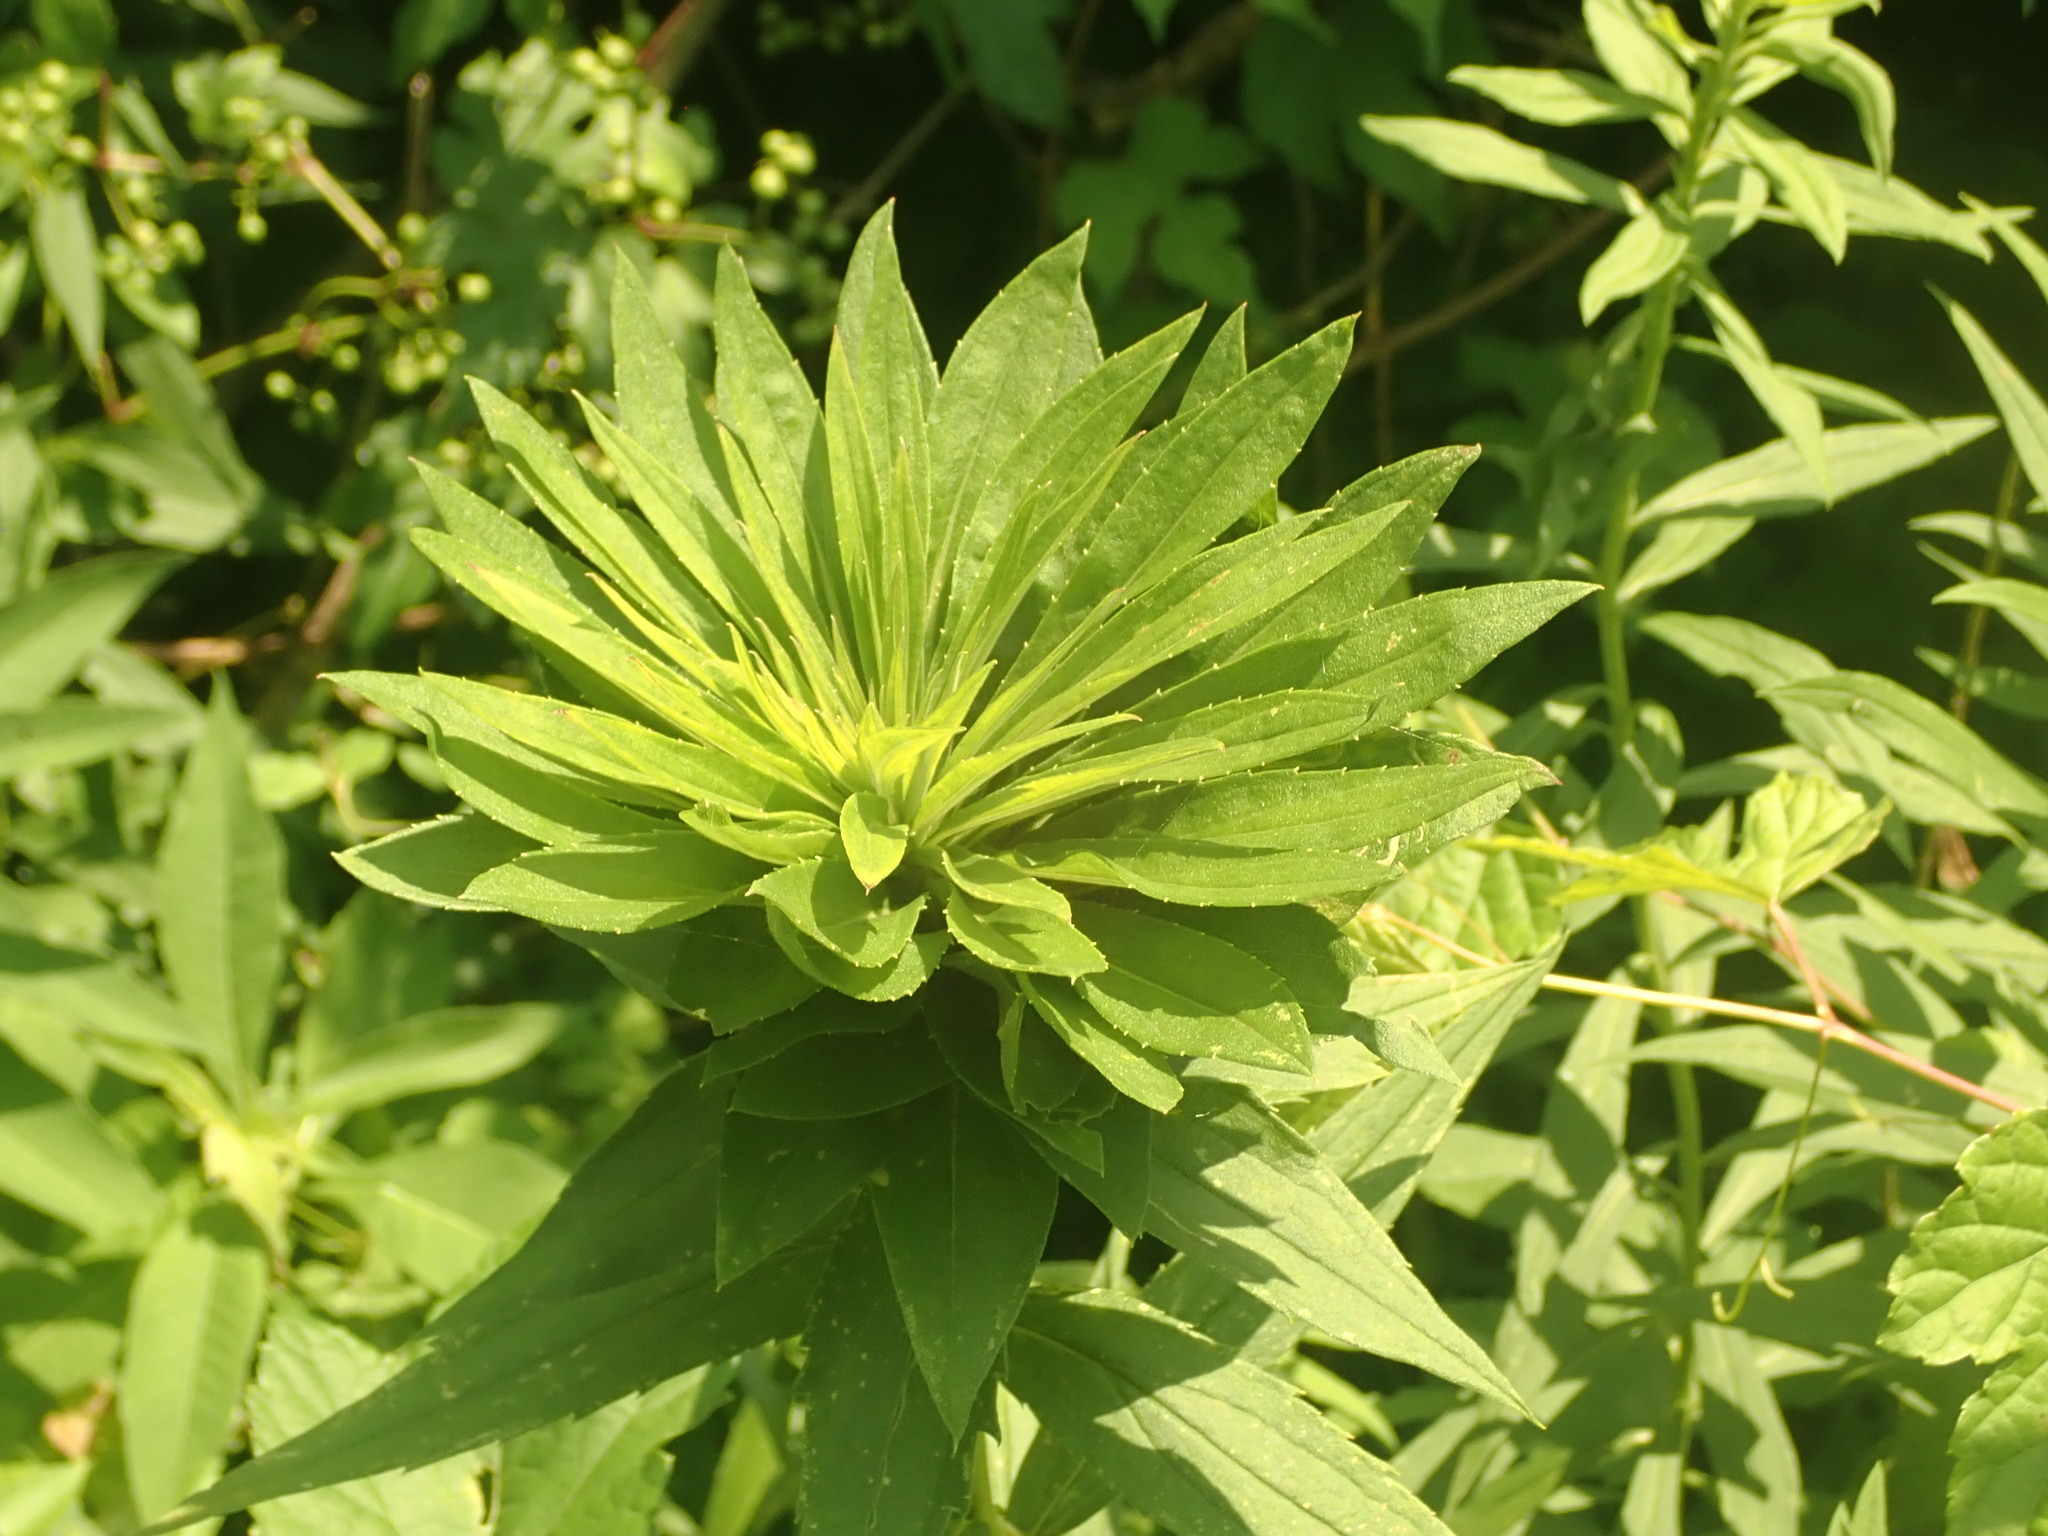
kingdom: Animalia
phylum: Arthropoda
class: Insecta
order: Diptera
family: Cecidomyiidae
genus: Rhopalomyia
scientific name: Rhopalomyia solidaginis
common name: Goldenrod bunch gall midge
